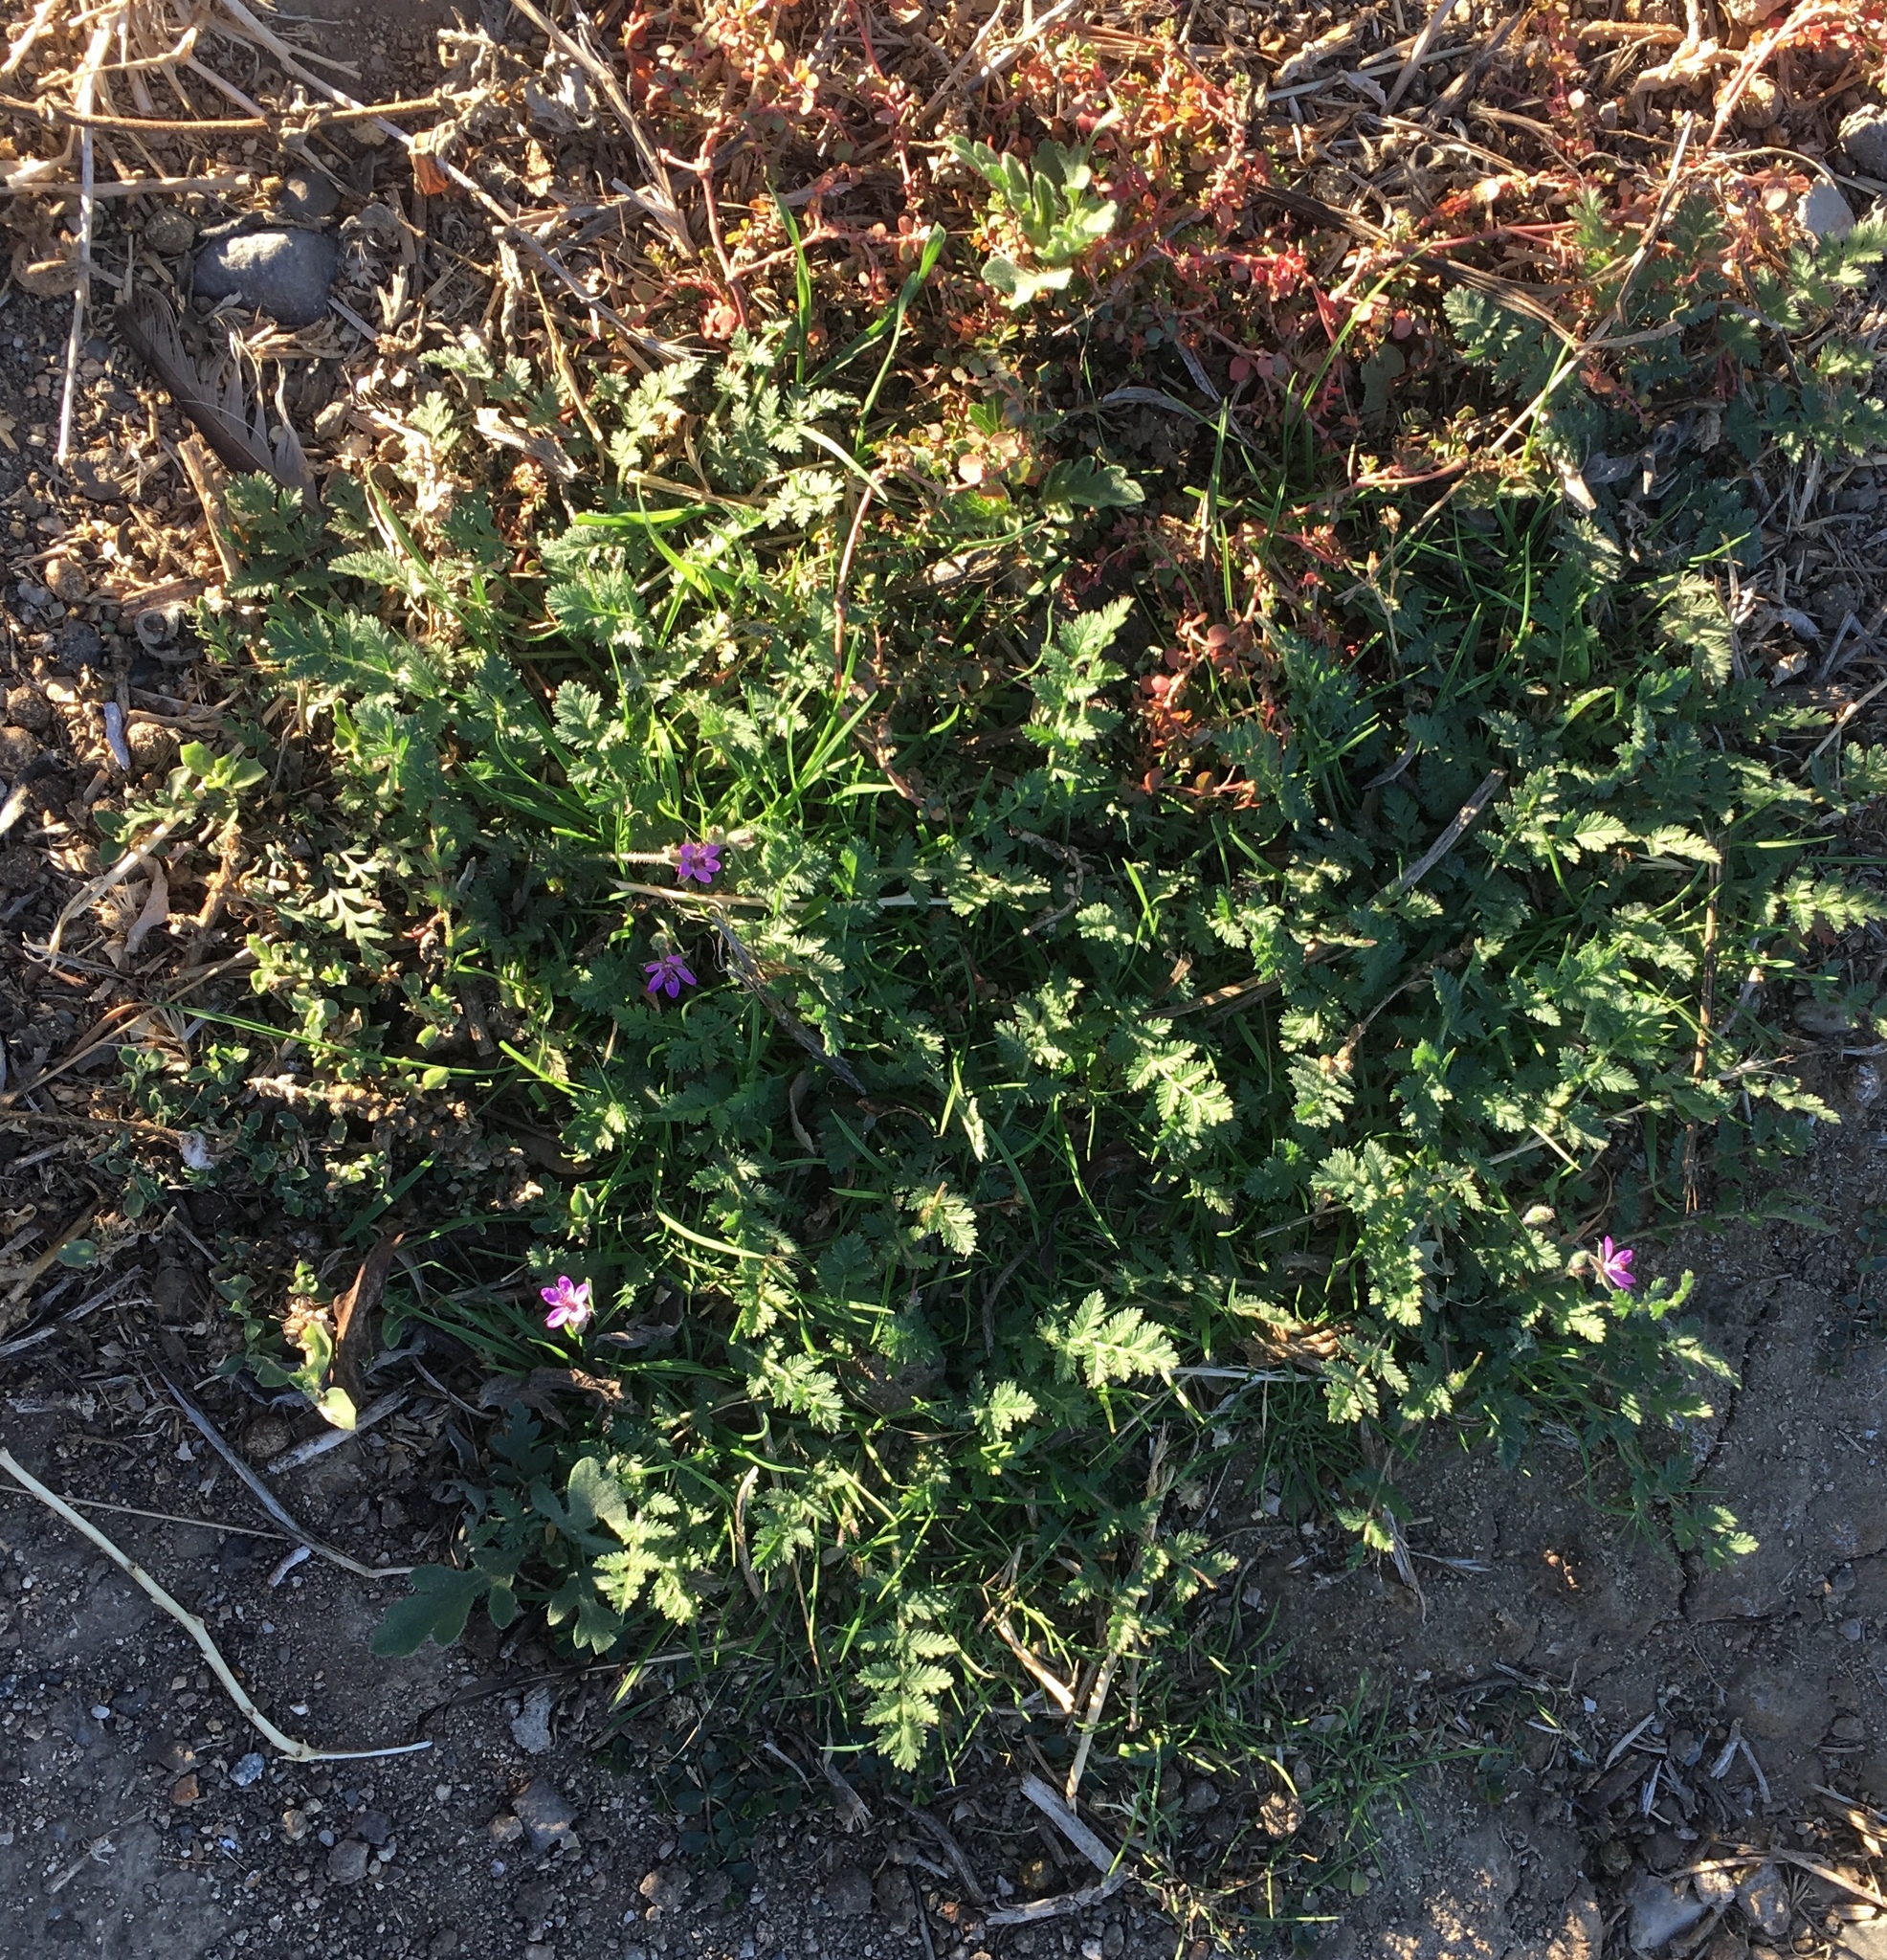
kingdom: Plantae
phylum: Tracheophyta
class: Magnoliopsida
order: Geraniales
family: Geraniaceae
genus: Erodium
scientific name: Erodium cicutarium
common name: Common stork's-bill
